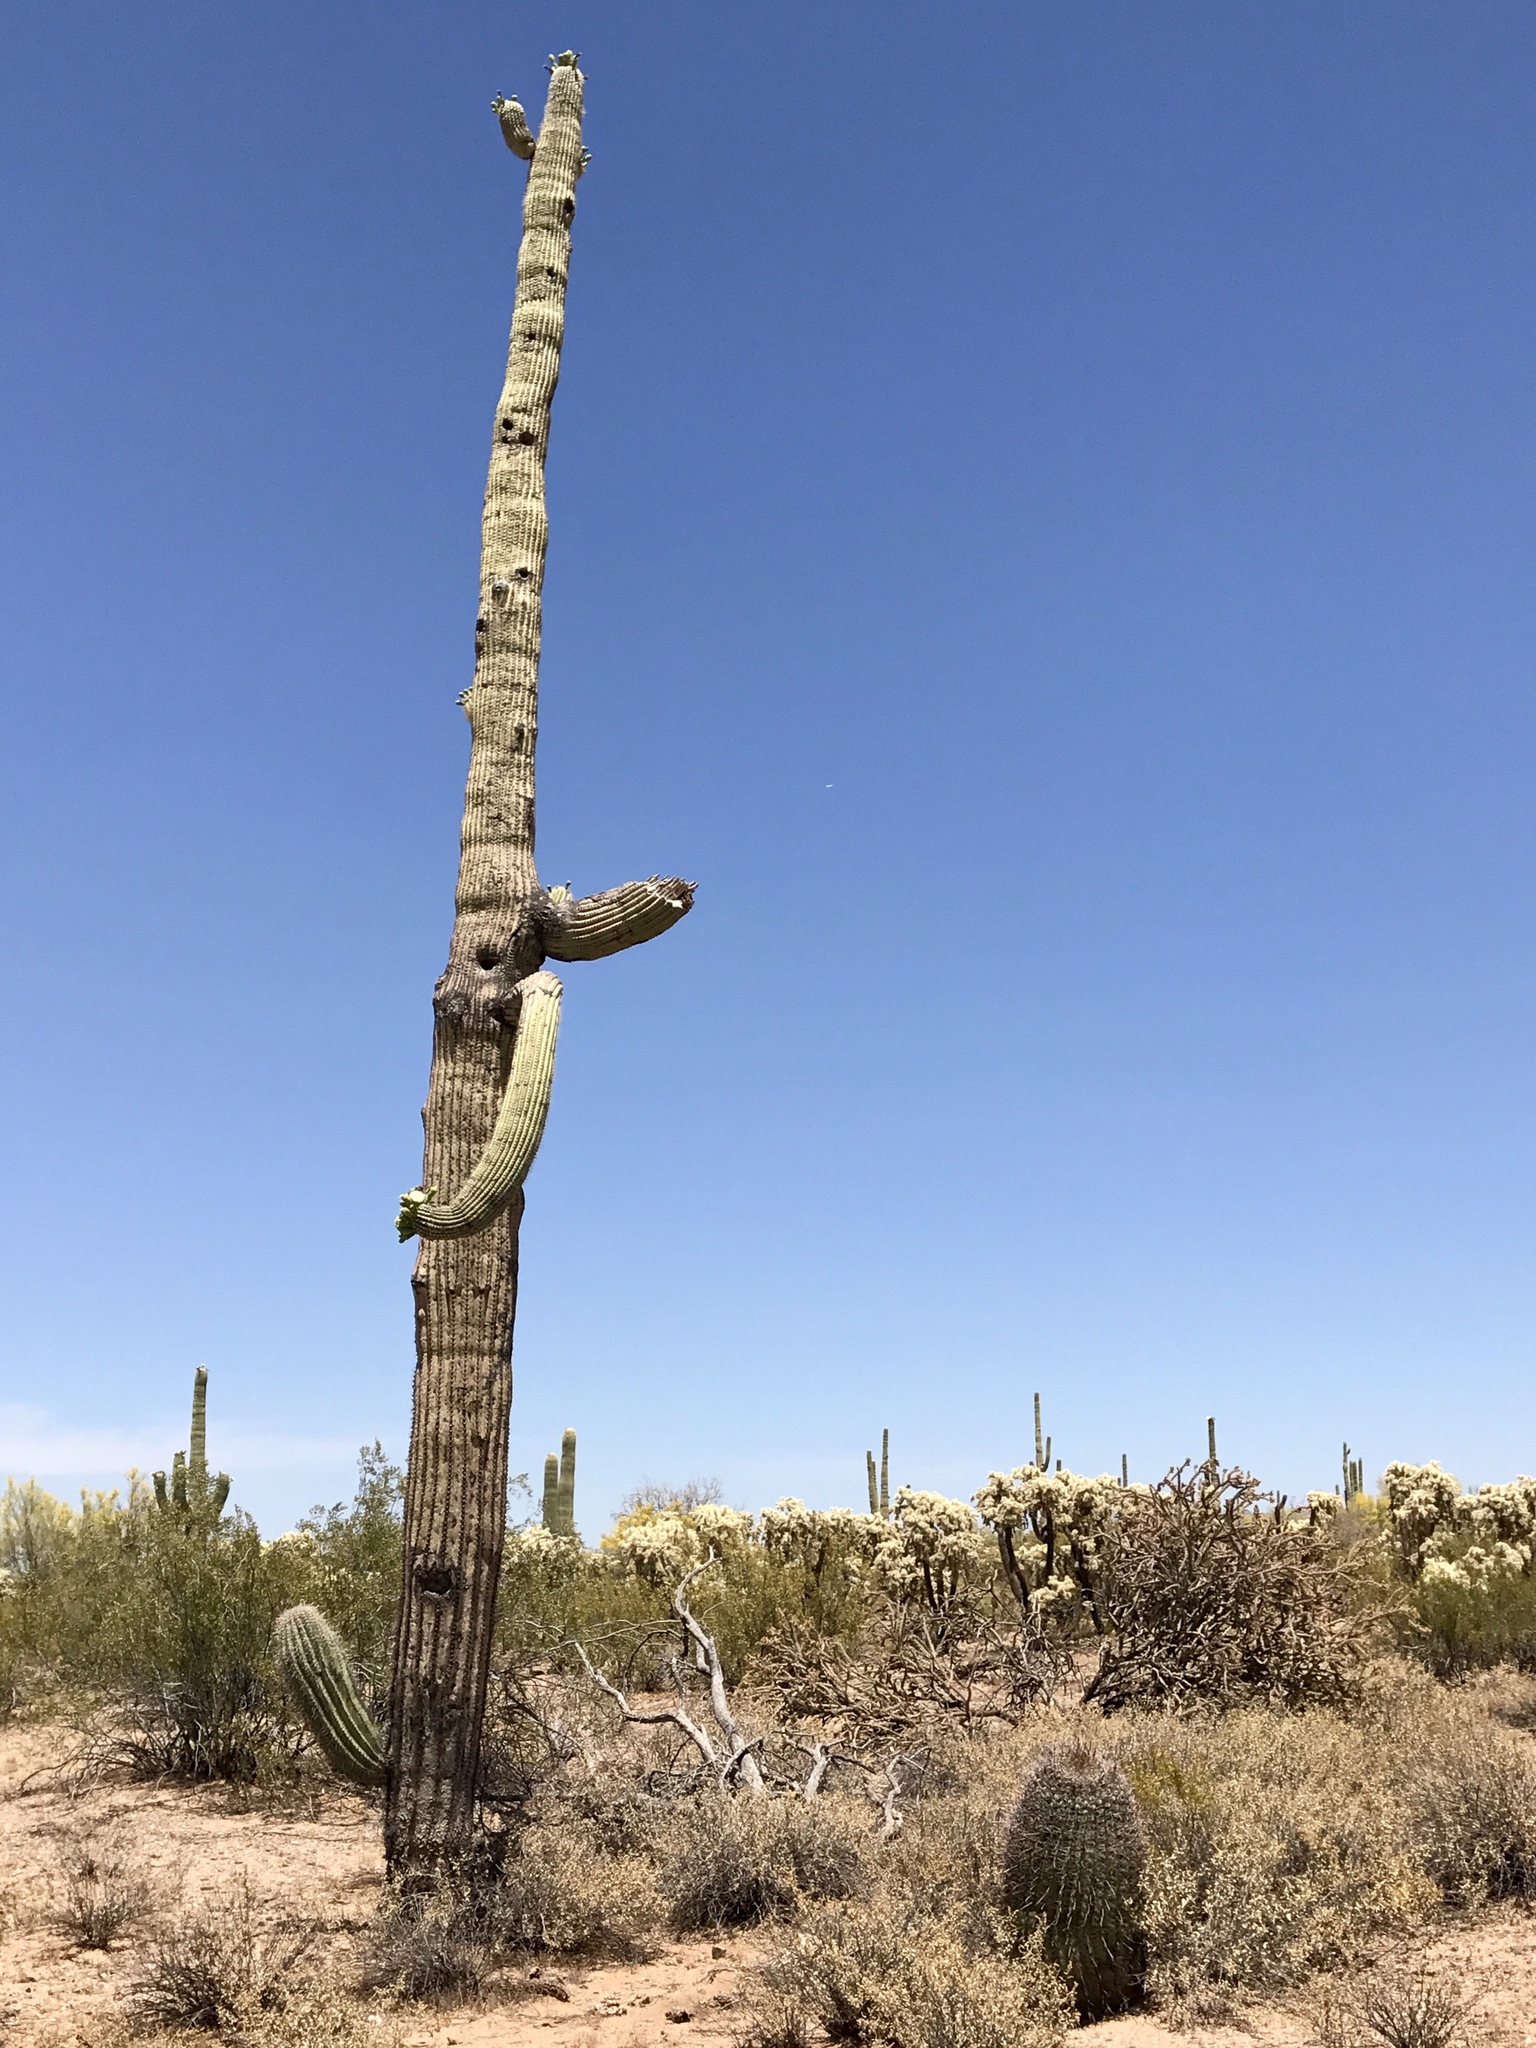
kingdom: Plantae
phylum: Tracheophyta
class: Magnoliopsida
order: Caryophyllales
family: Cactaceae
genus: Carnegiea
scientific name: Carnegiea gigantea
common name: Saguaro
